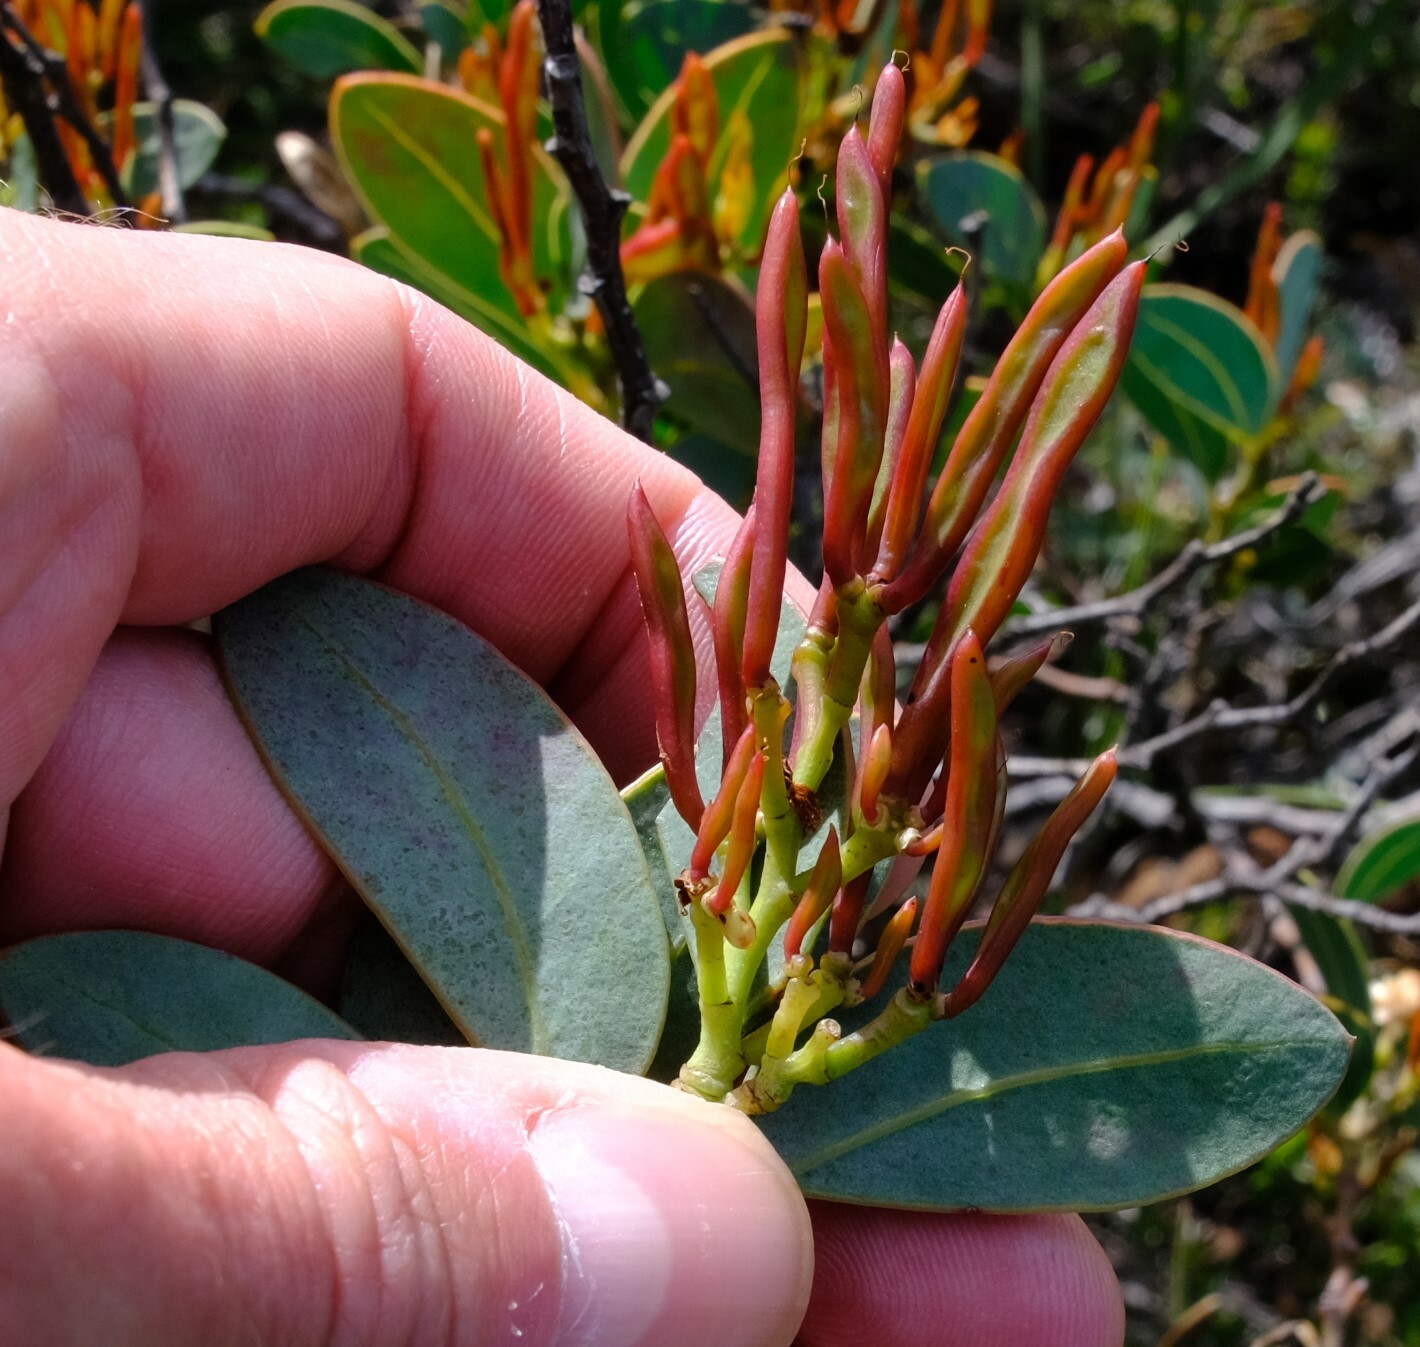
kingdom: Plantae
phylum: Tracheophyta
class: Magnoliopsida
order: Fabales
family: Fabaceae
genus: Acacia
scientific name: Acacia clydonophora
